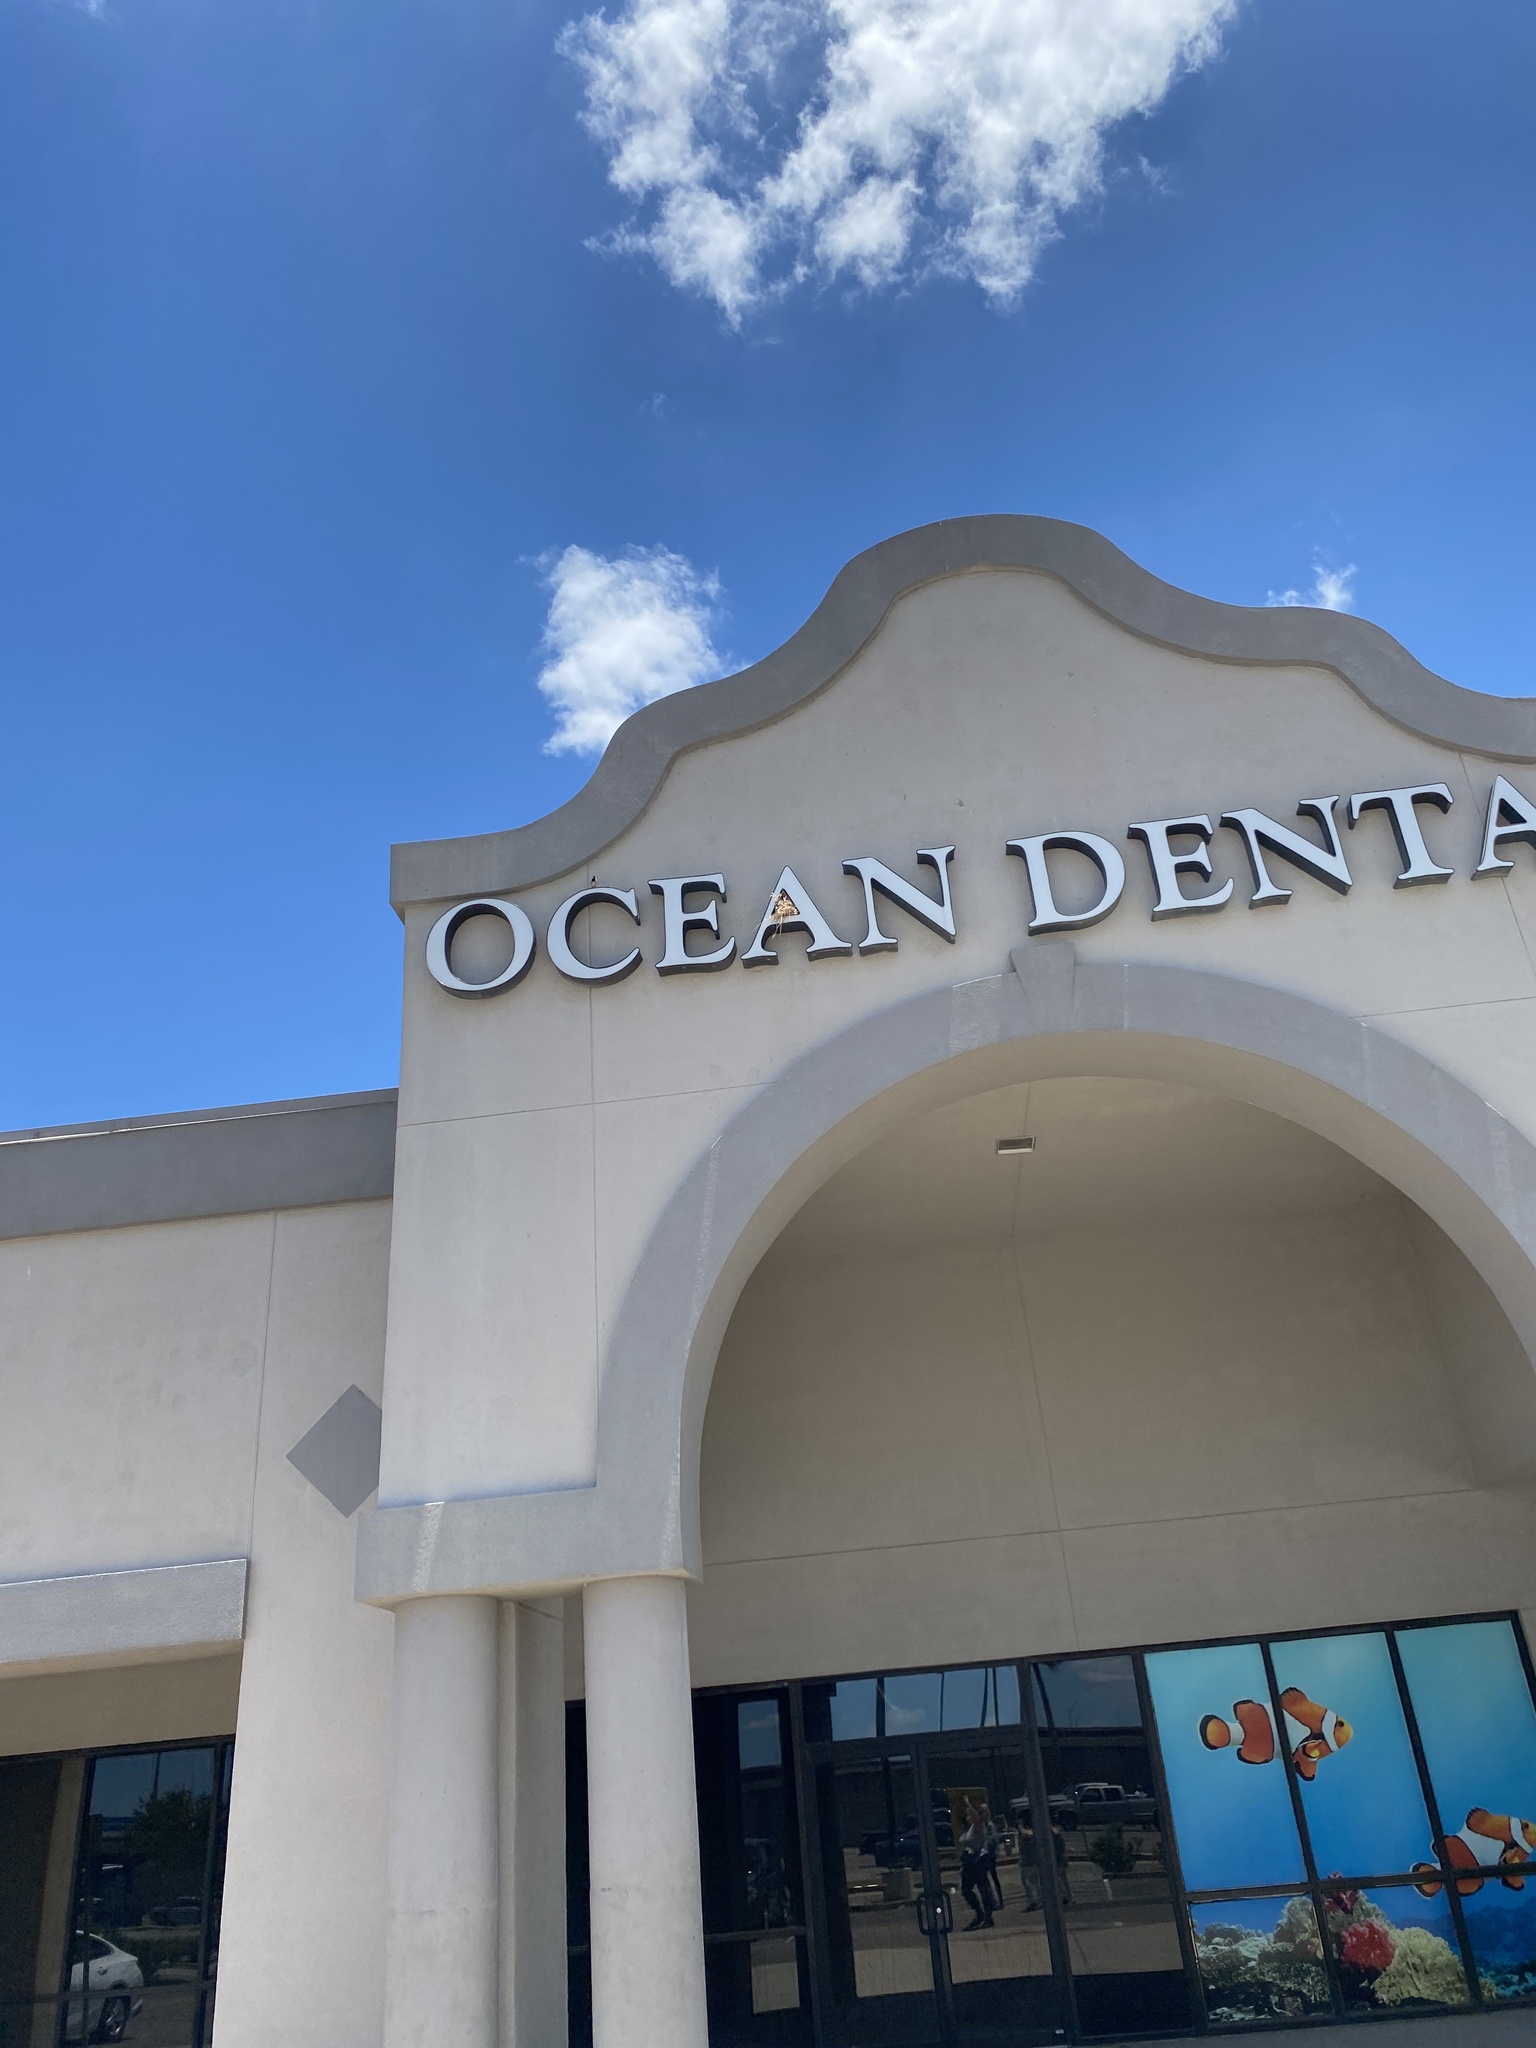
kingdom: Animalia
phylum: Chordata
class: Aves
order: Passeriformes
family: Passeridae
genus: Passer
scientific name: Passer domesticus
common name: House sparrow
